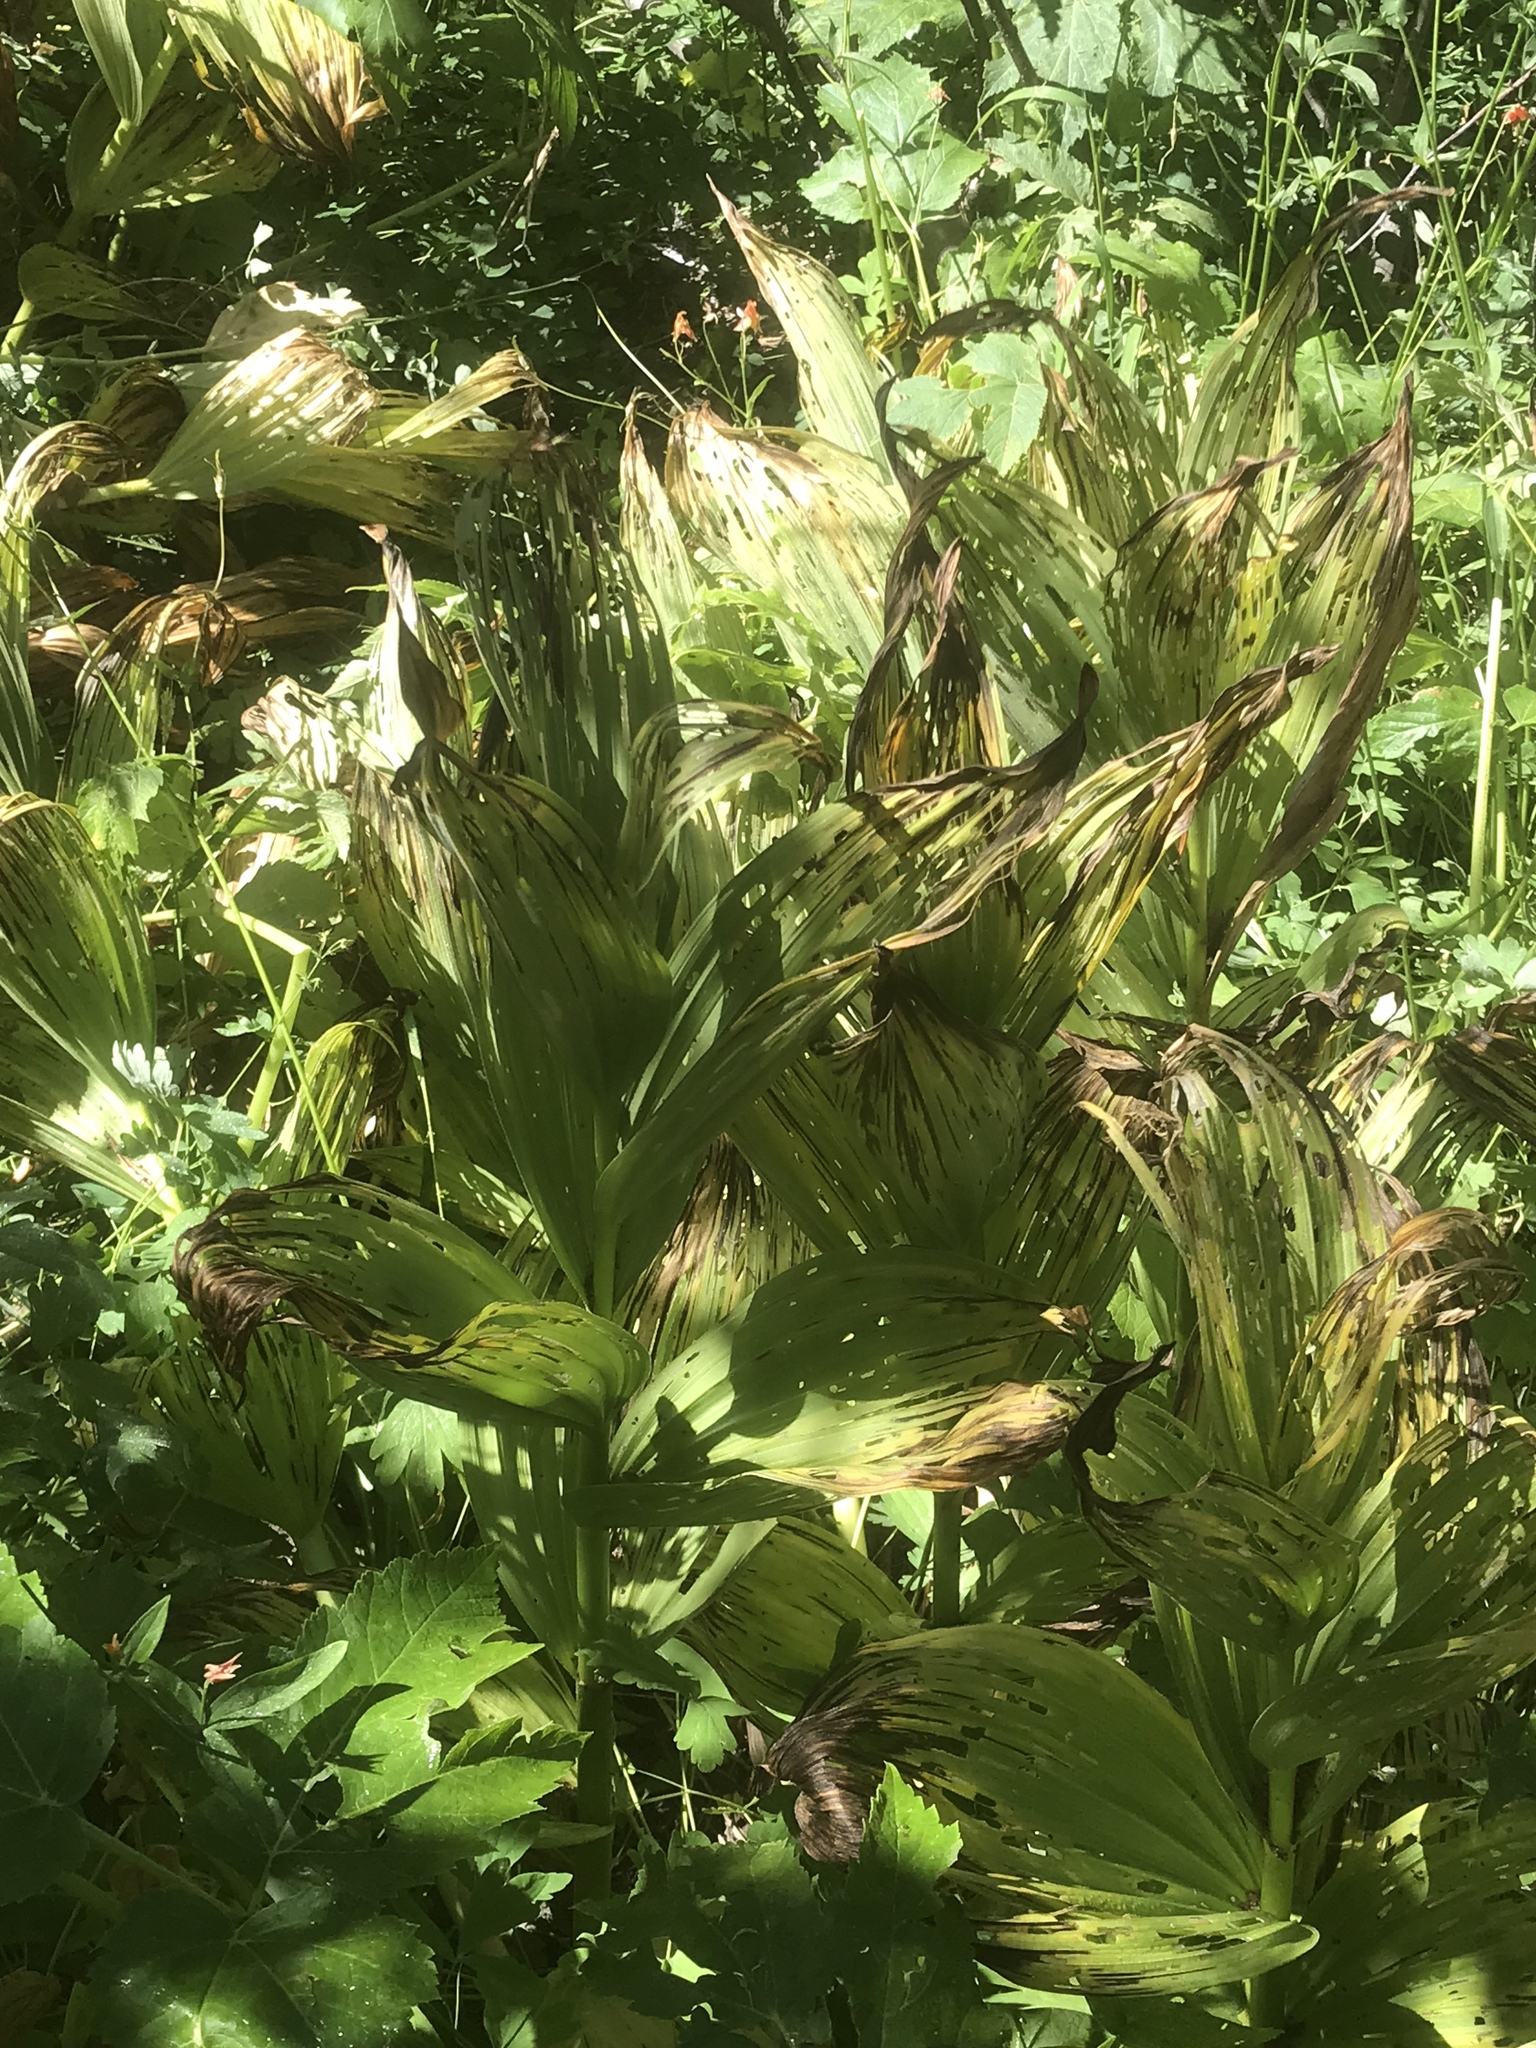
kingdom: Plantae
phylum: Tracheophyta
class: Liliopsida
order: Liliales
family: Melanthiaceae
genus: Veratrum
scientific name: Veratrum californicum
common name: California veratrum
